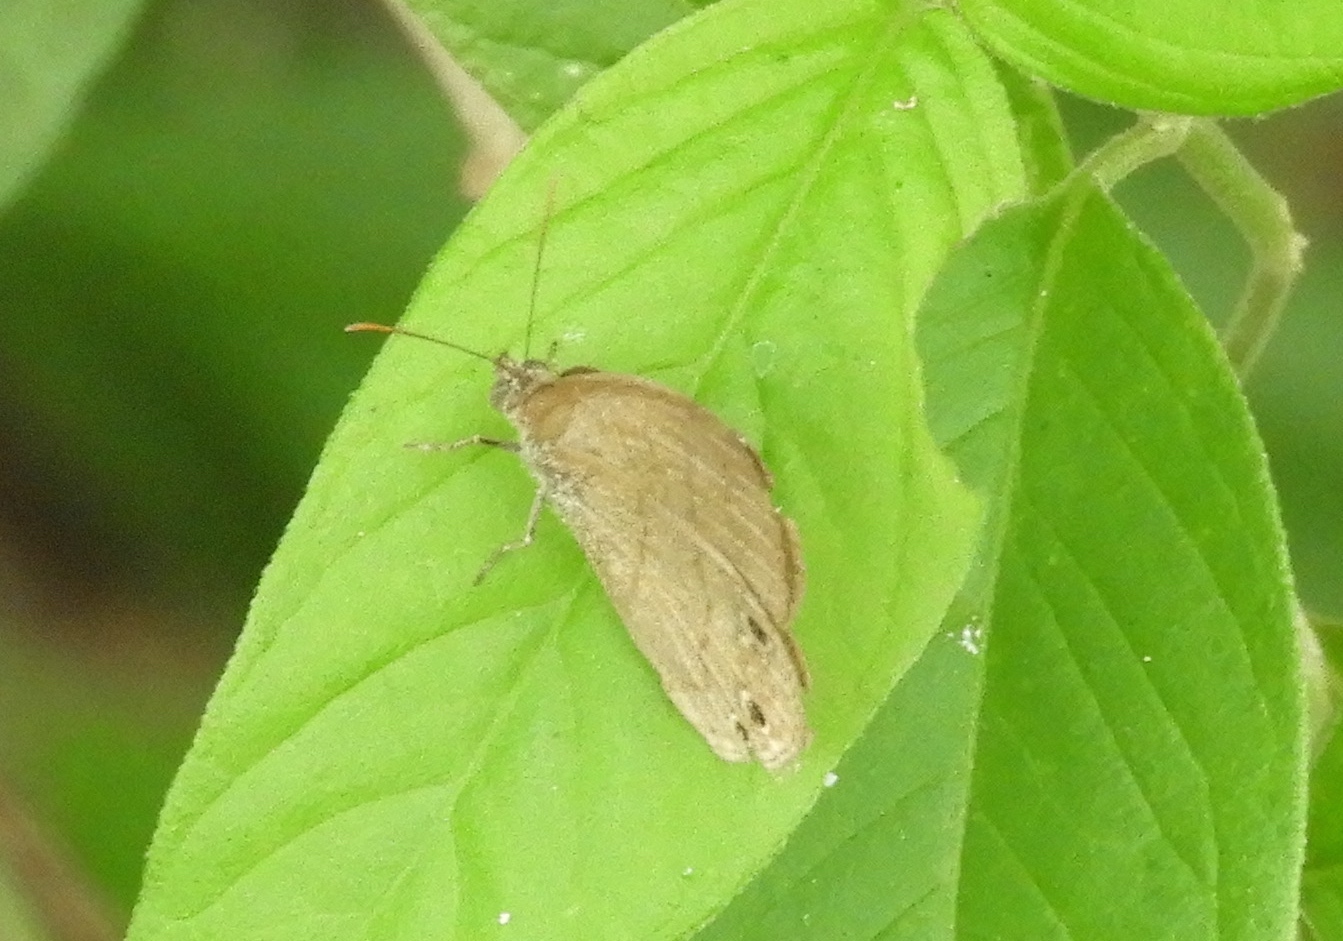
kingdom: Animalia
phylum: Arthropoda
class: Insecta
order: Lepidoptera
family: Nymphalidae
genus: Euptychiina
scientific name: Euptychiina
